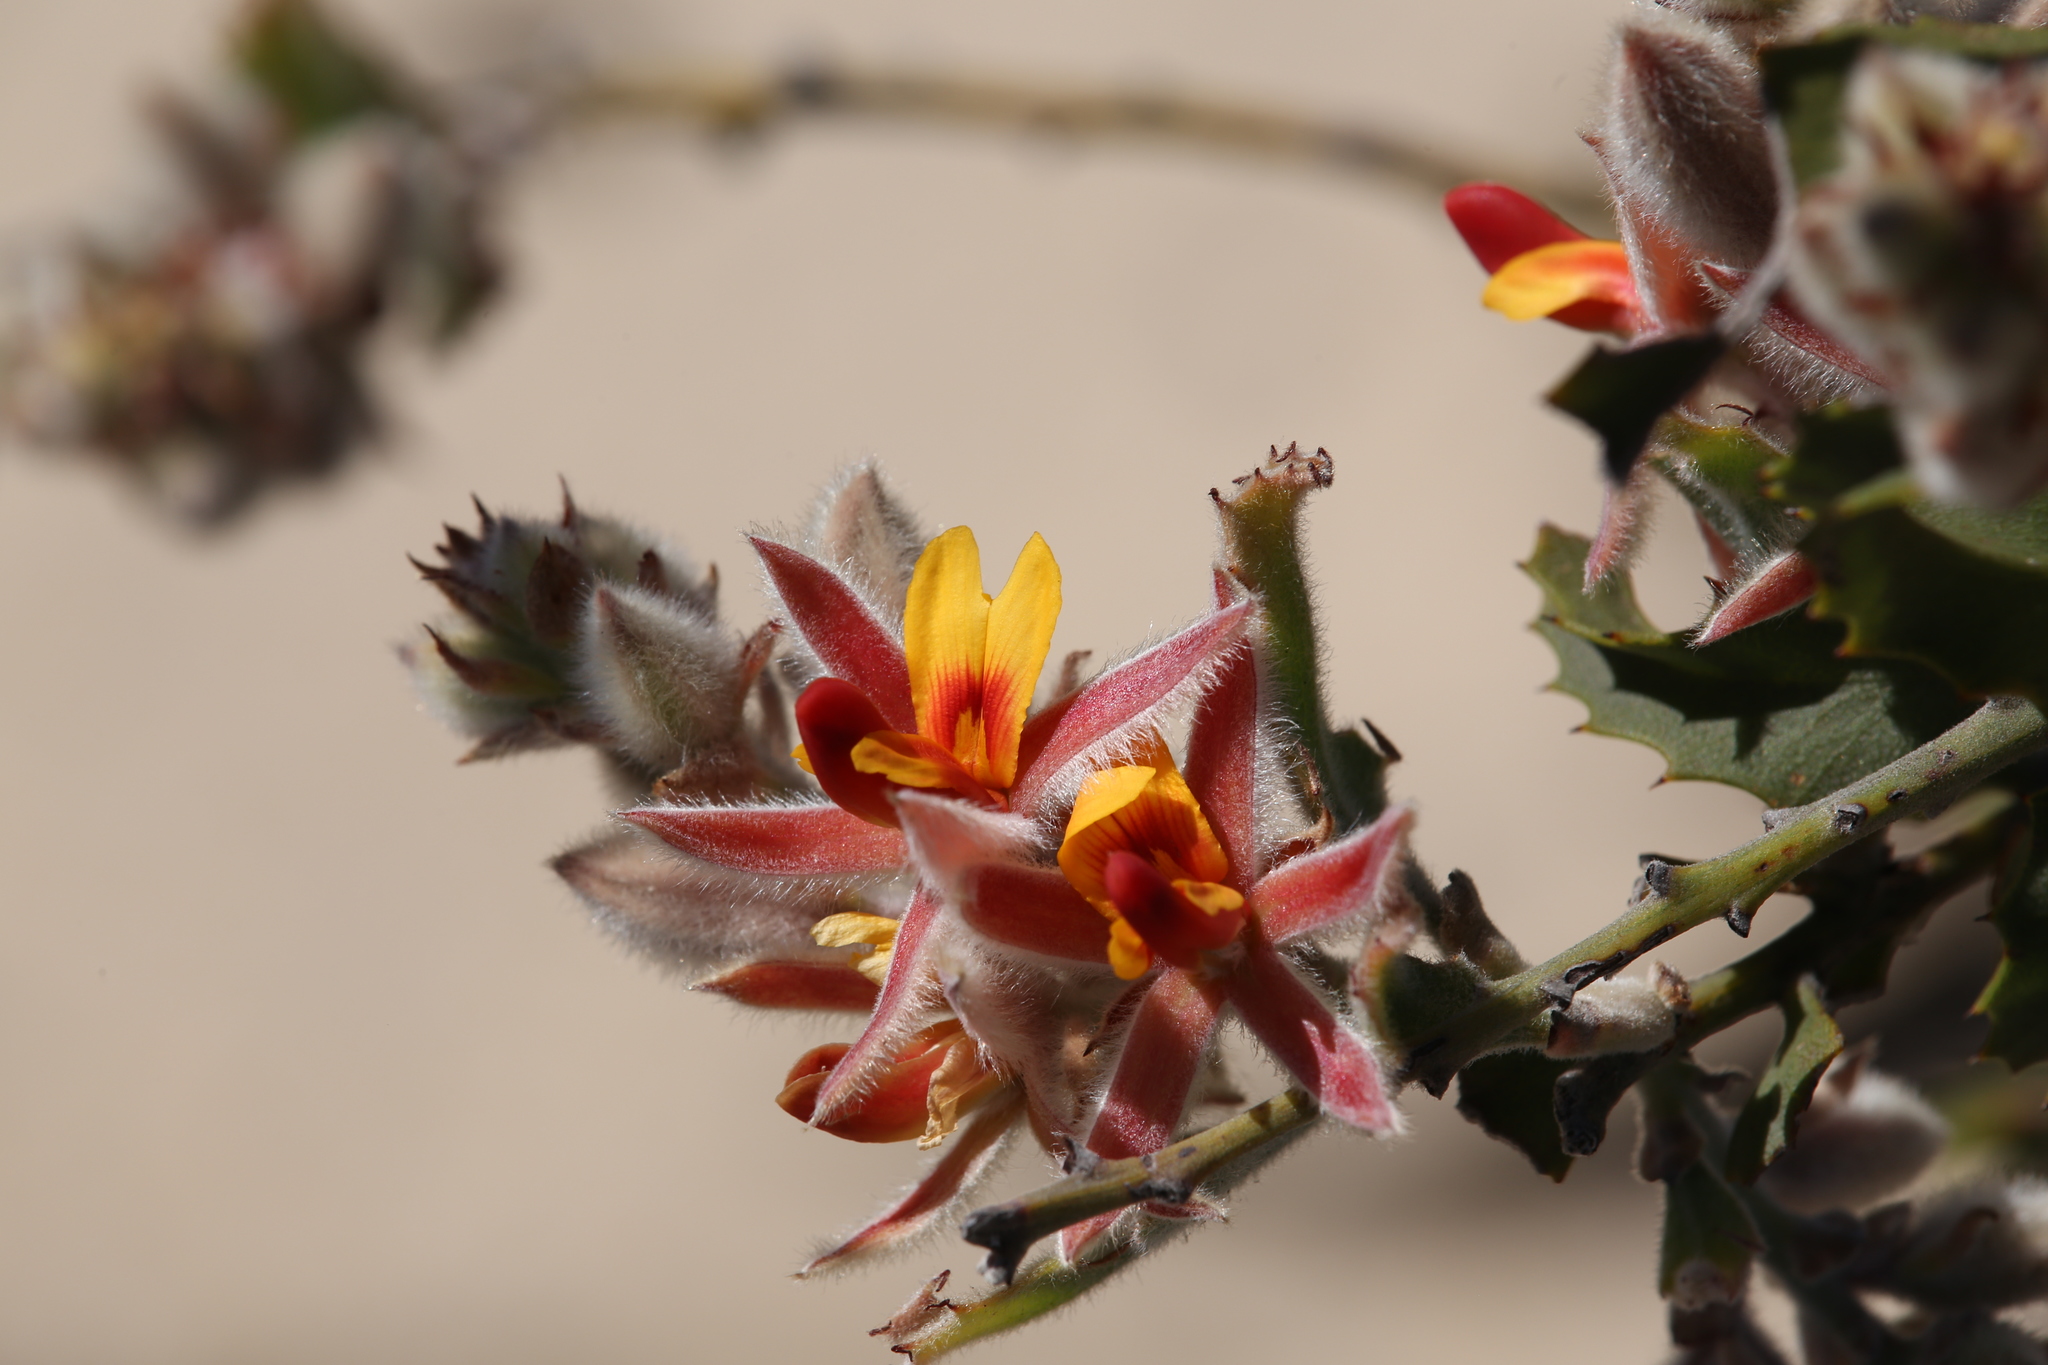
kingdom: Plantae
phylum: Tracheophyta
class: Magnoliopsida
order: Fabales
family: Fabaceae
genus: Jacksonia
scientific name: Jacksonia floribunda
